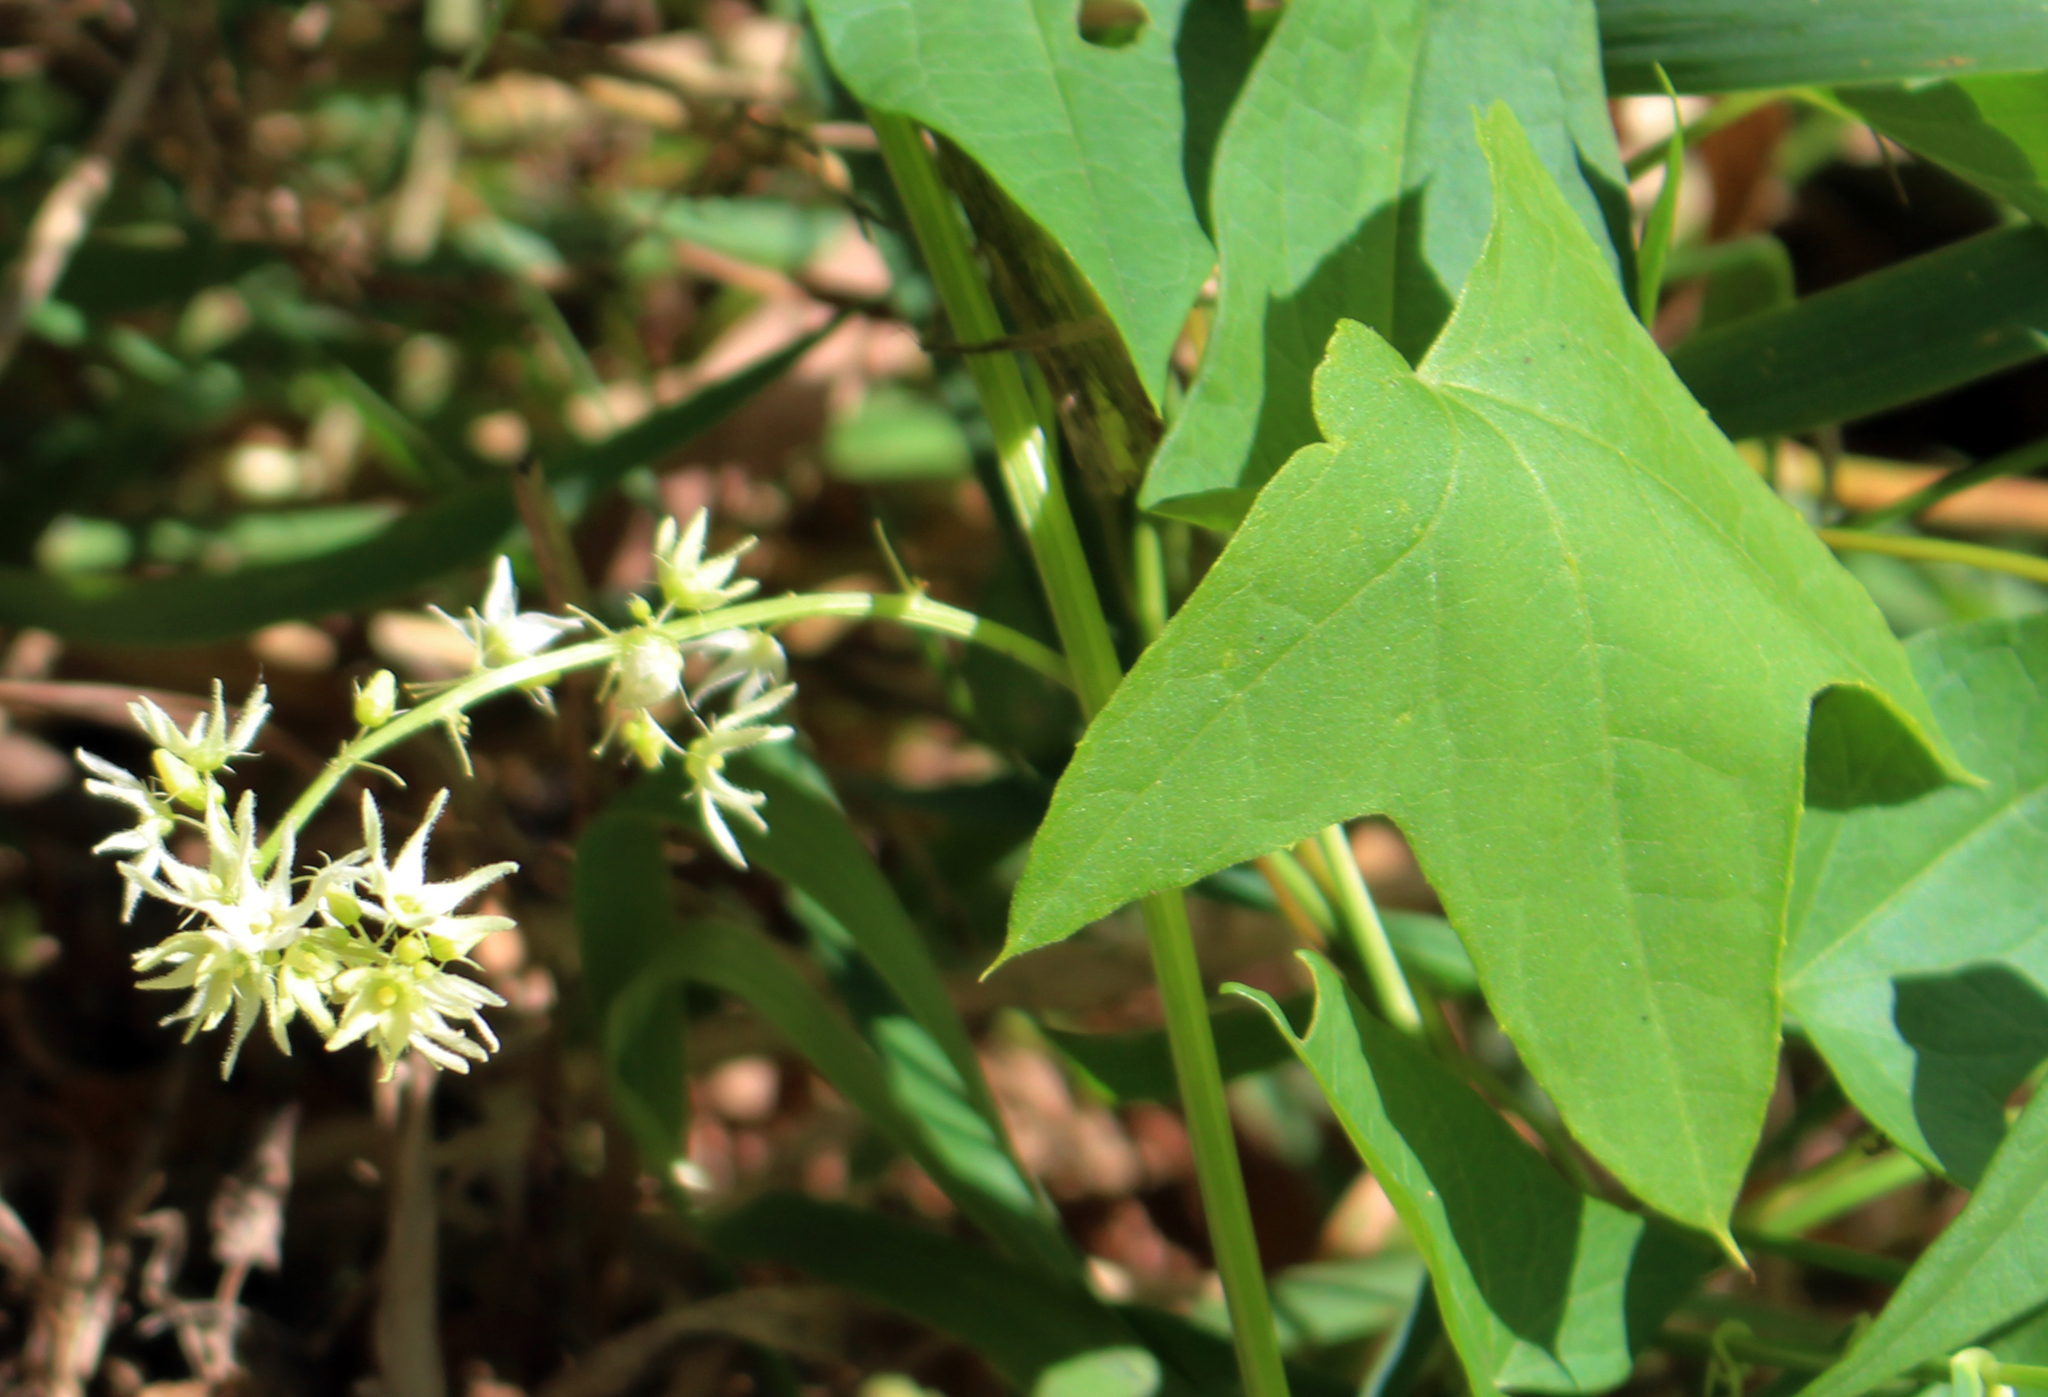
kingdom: Plantae
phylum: Tracheophyta
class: Magnoliopsida
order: Cucurbitales
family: Cucurbitaceae
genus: Echinocystis
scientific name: Echinocystis lobata
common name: Wild cucumber
